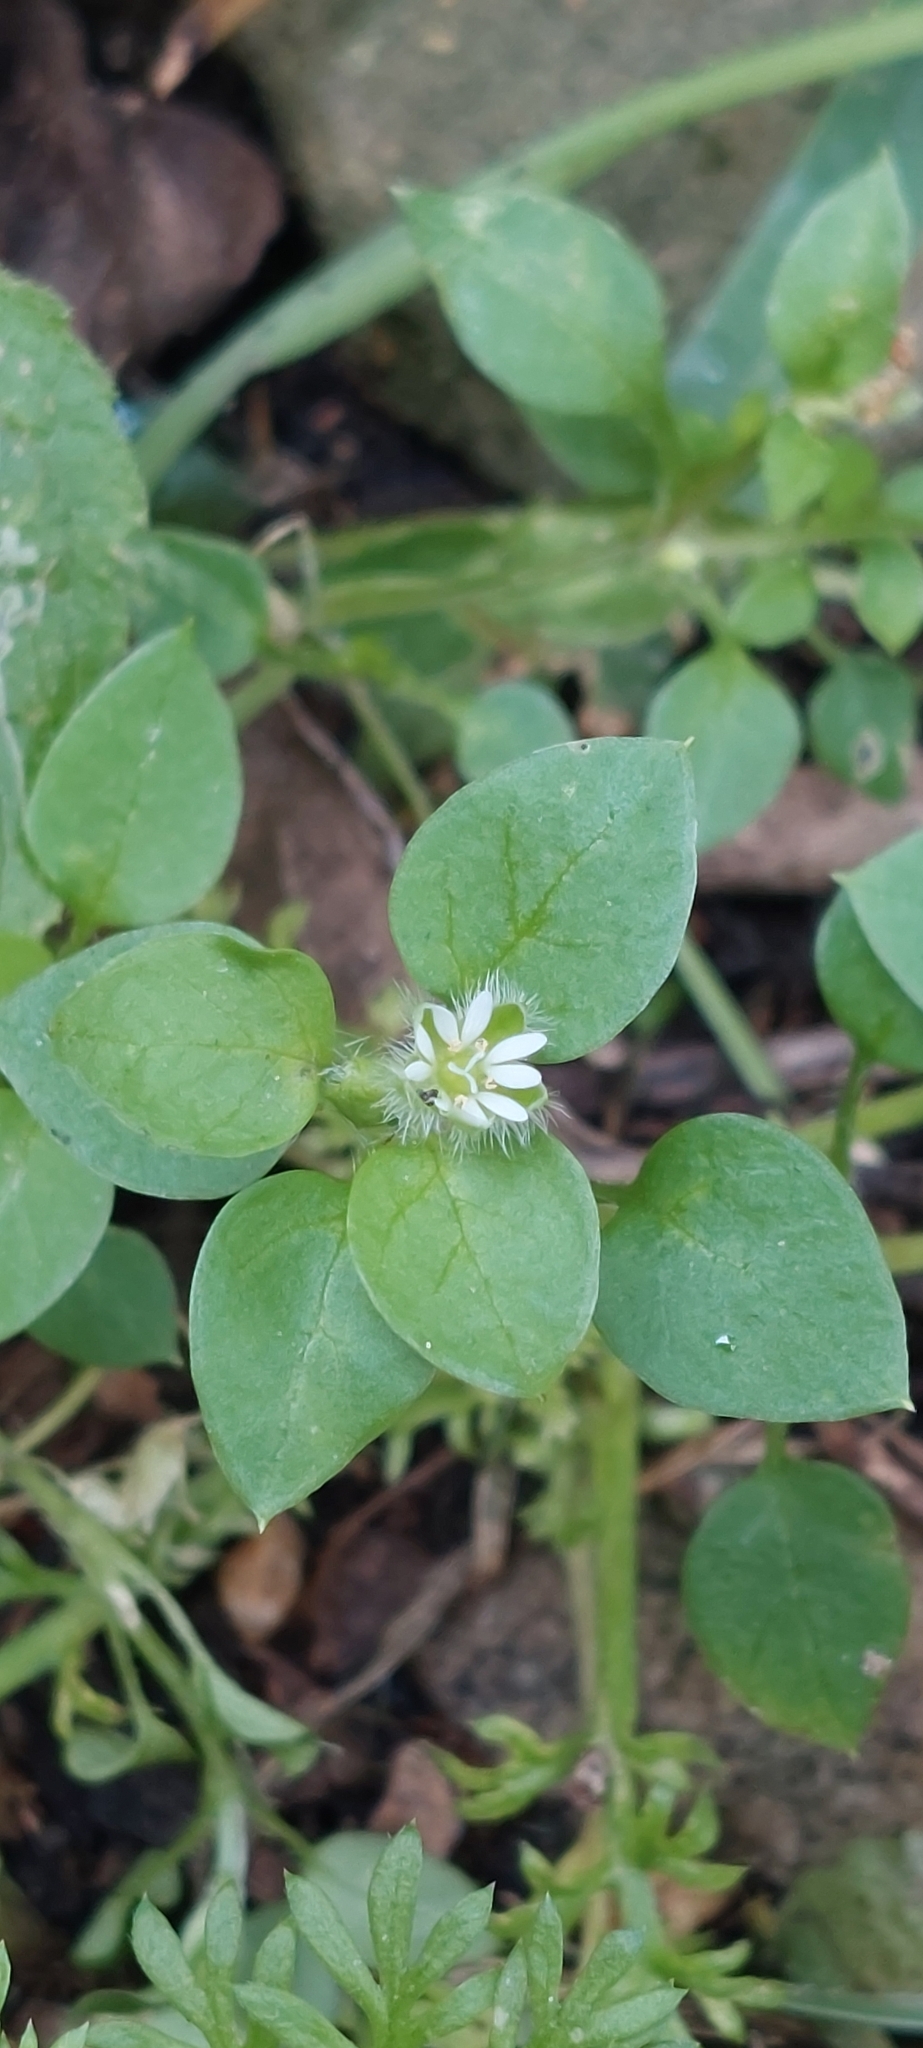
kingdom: Plantae
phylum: Tracheophyta
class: Magnoliopsida
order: Caryophyllales
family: Caryophyllaceae
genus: Stellaria
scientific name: Stellaria media
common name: Common chickweed
